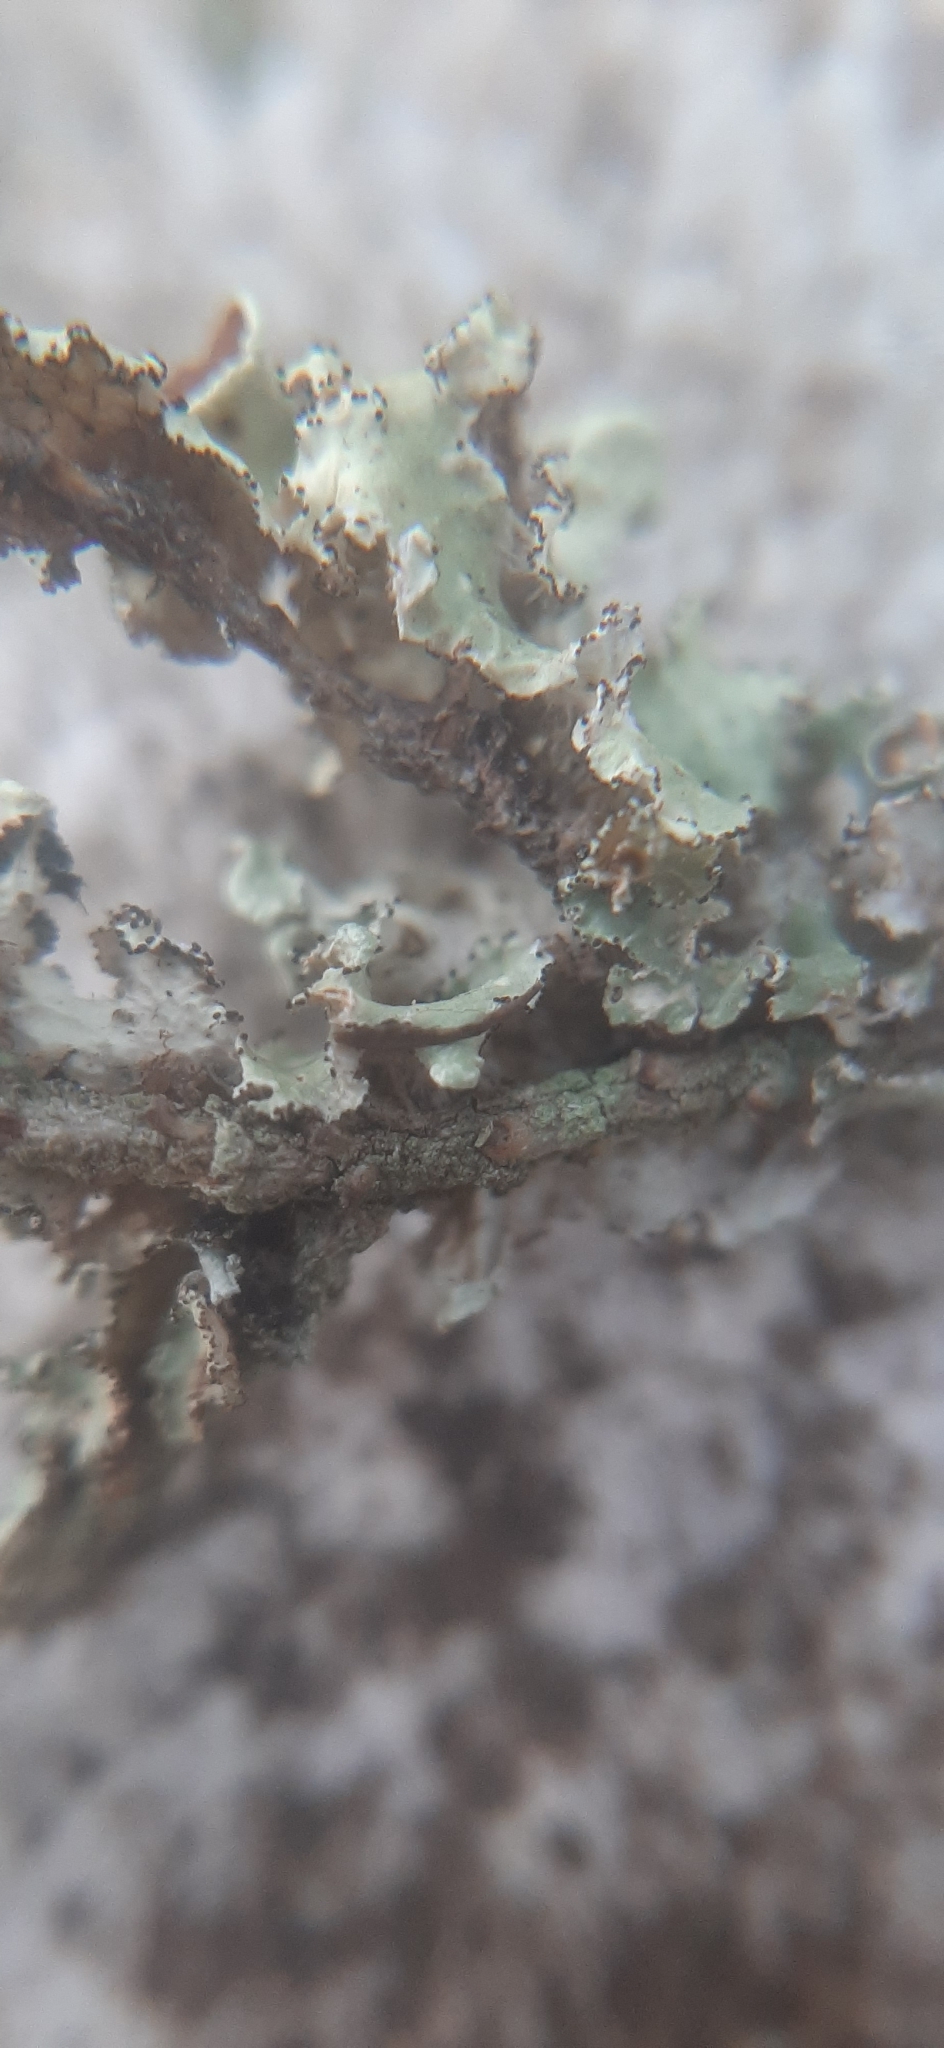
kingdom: Fungi
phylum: Ascomycota
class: Lecanoromycetes
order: Lecanorales
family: Parmeliaceae
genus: Nephromopsis
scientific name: Nephromopsis aurescens
